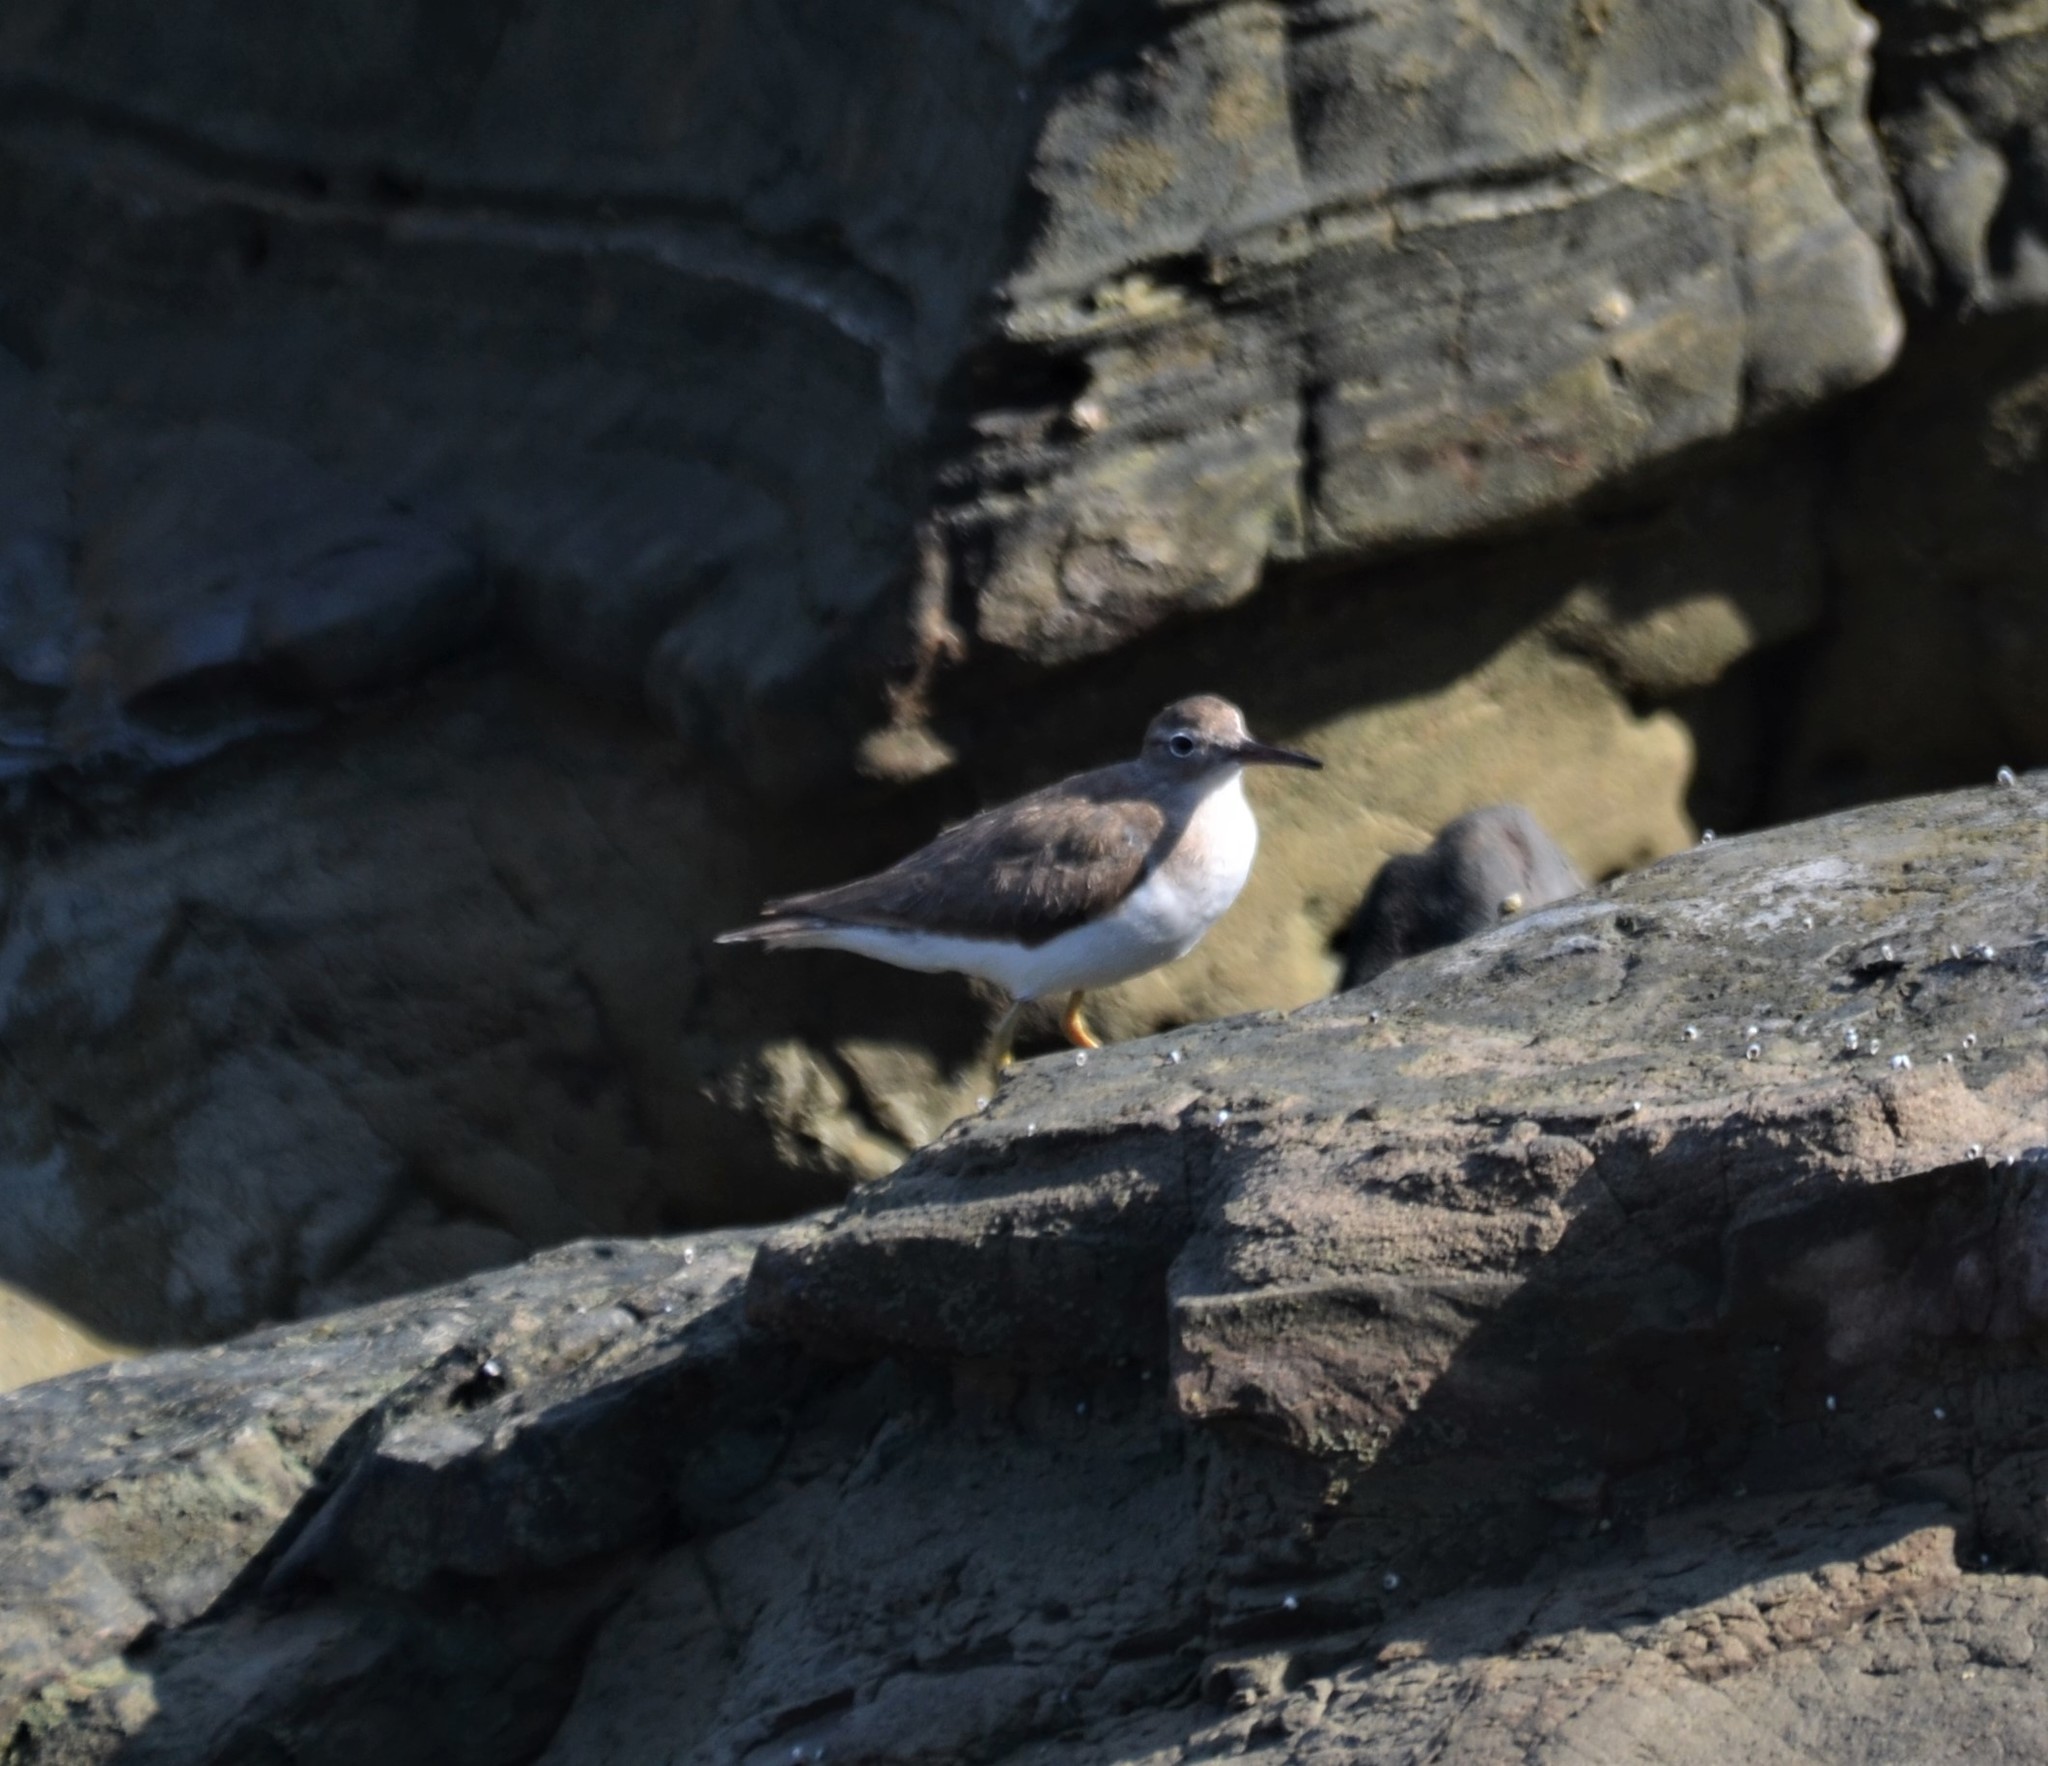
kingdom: Animalia
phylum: Chordata
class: Aves
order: Charadriiformes
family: Scolopacidae
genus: Actitis
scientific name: Actitis macularius
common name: Spotted sandpiper
